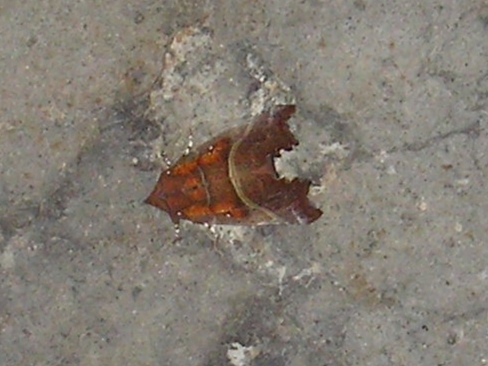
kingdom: Animalia
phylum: Arthropoda
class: Insecta
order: Lepidoptera
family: Erebidae
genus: Scoliopteryx
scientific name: Scoliopteryx libatrix
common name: Herald
